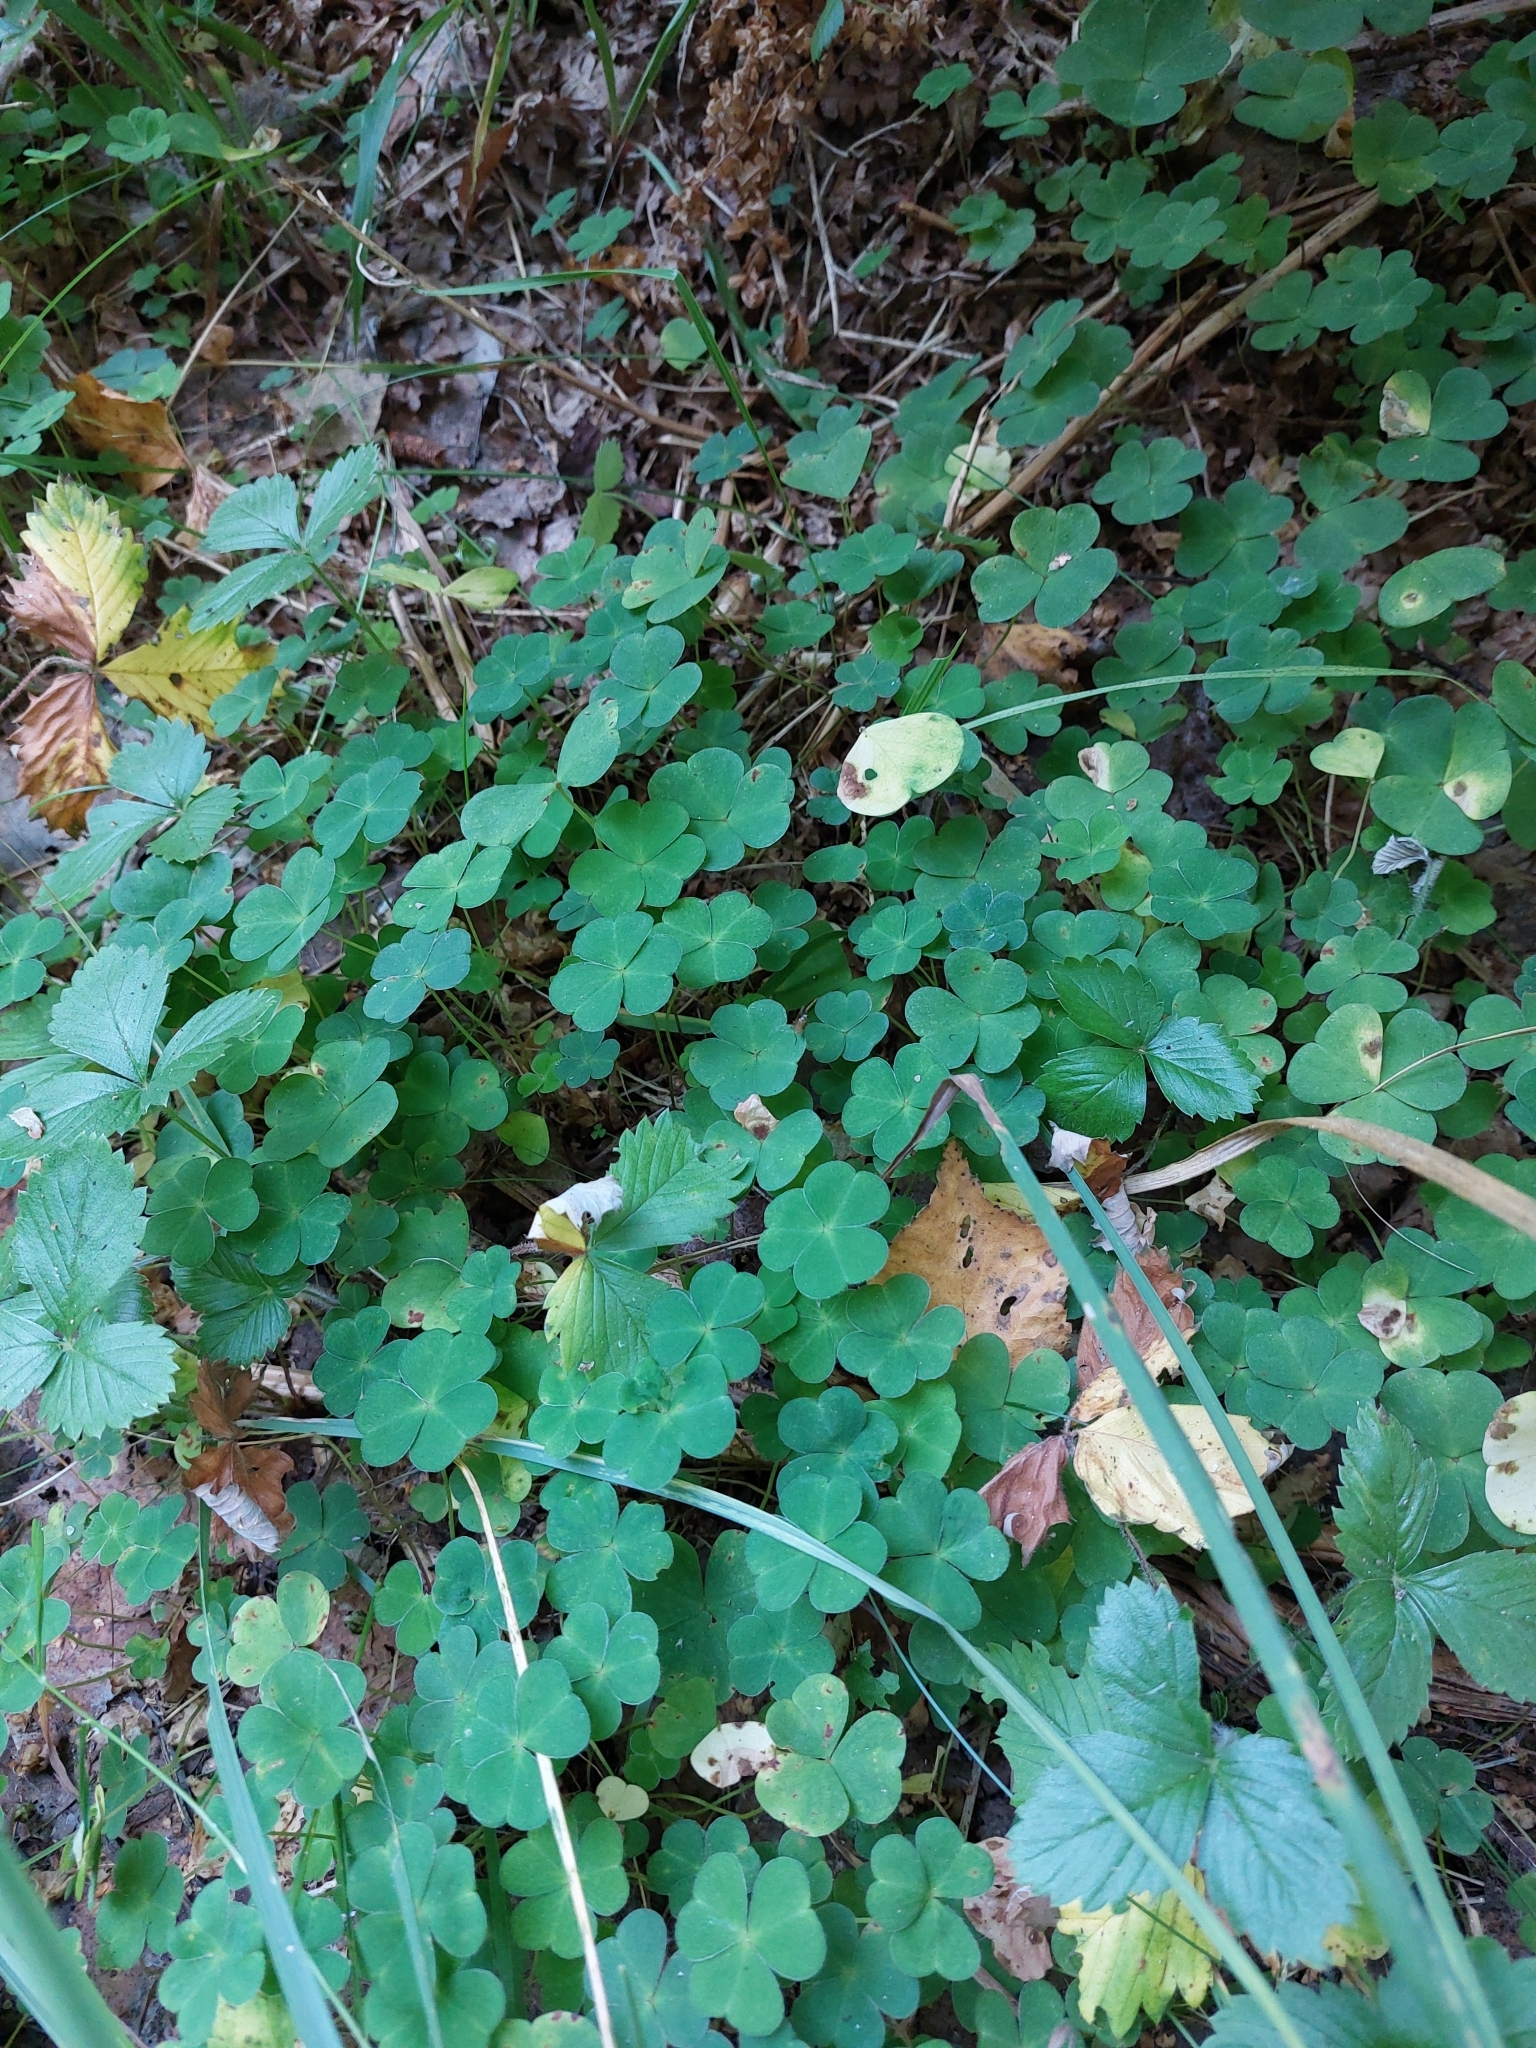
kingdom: Plantae
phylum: Tracheophyta
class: Magnoliopsida
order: Oxalidales
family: Oxalidaceae
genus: Oxalis
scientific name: Oxalis acetosella
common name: Wood-sorrel
